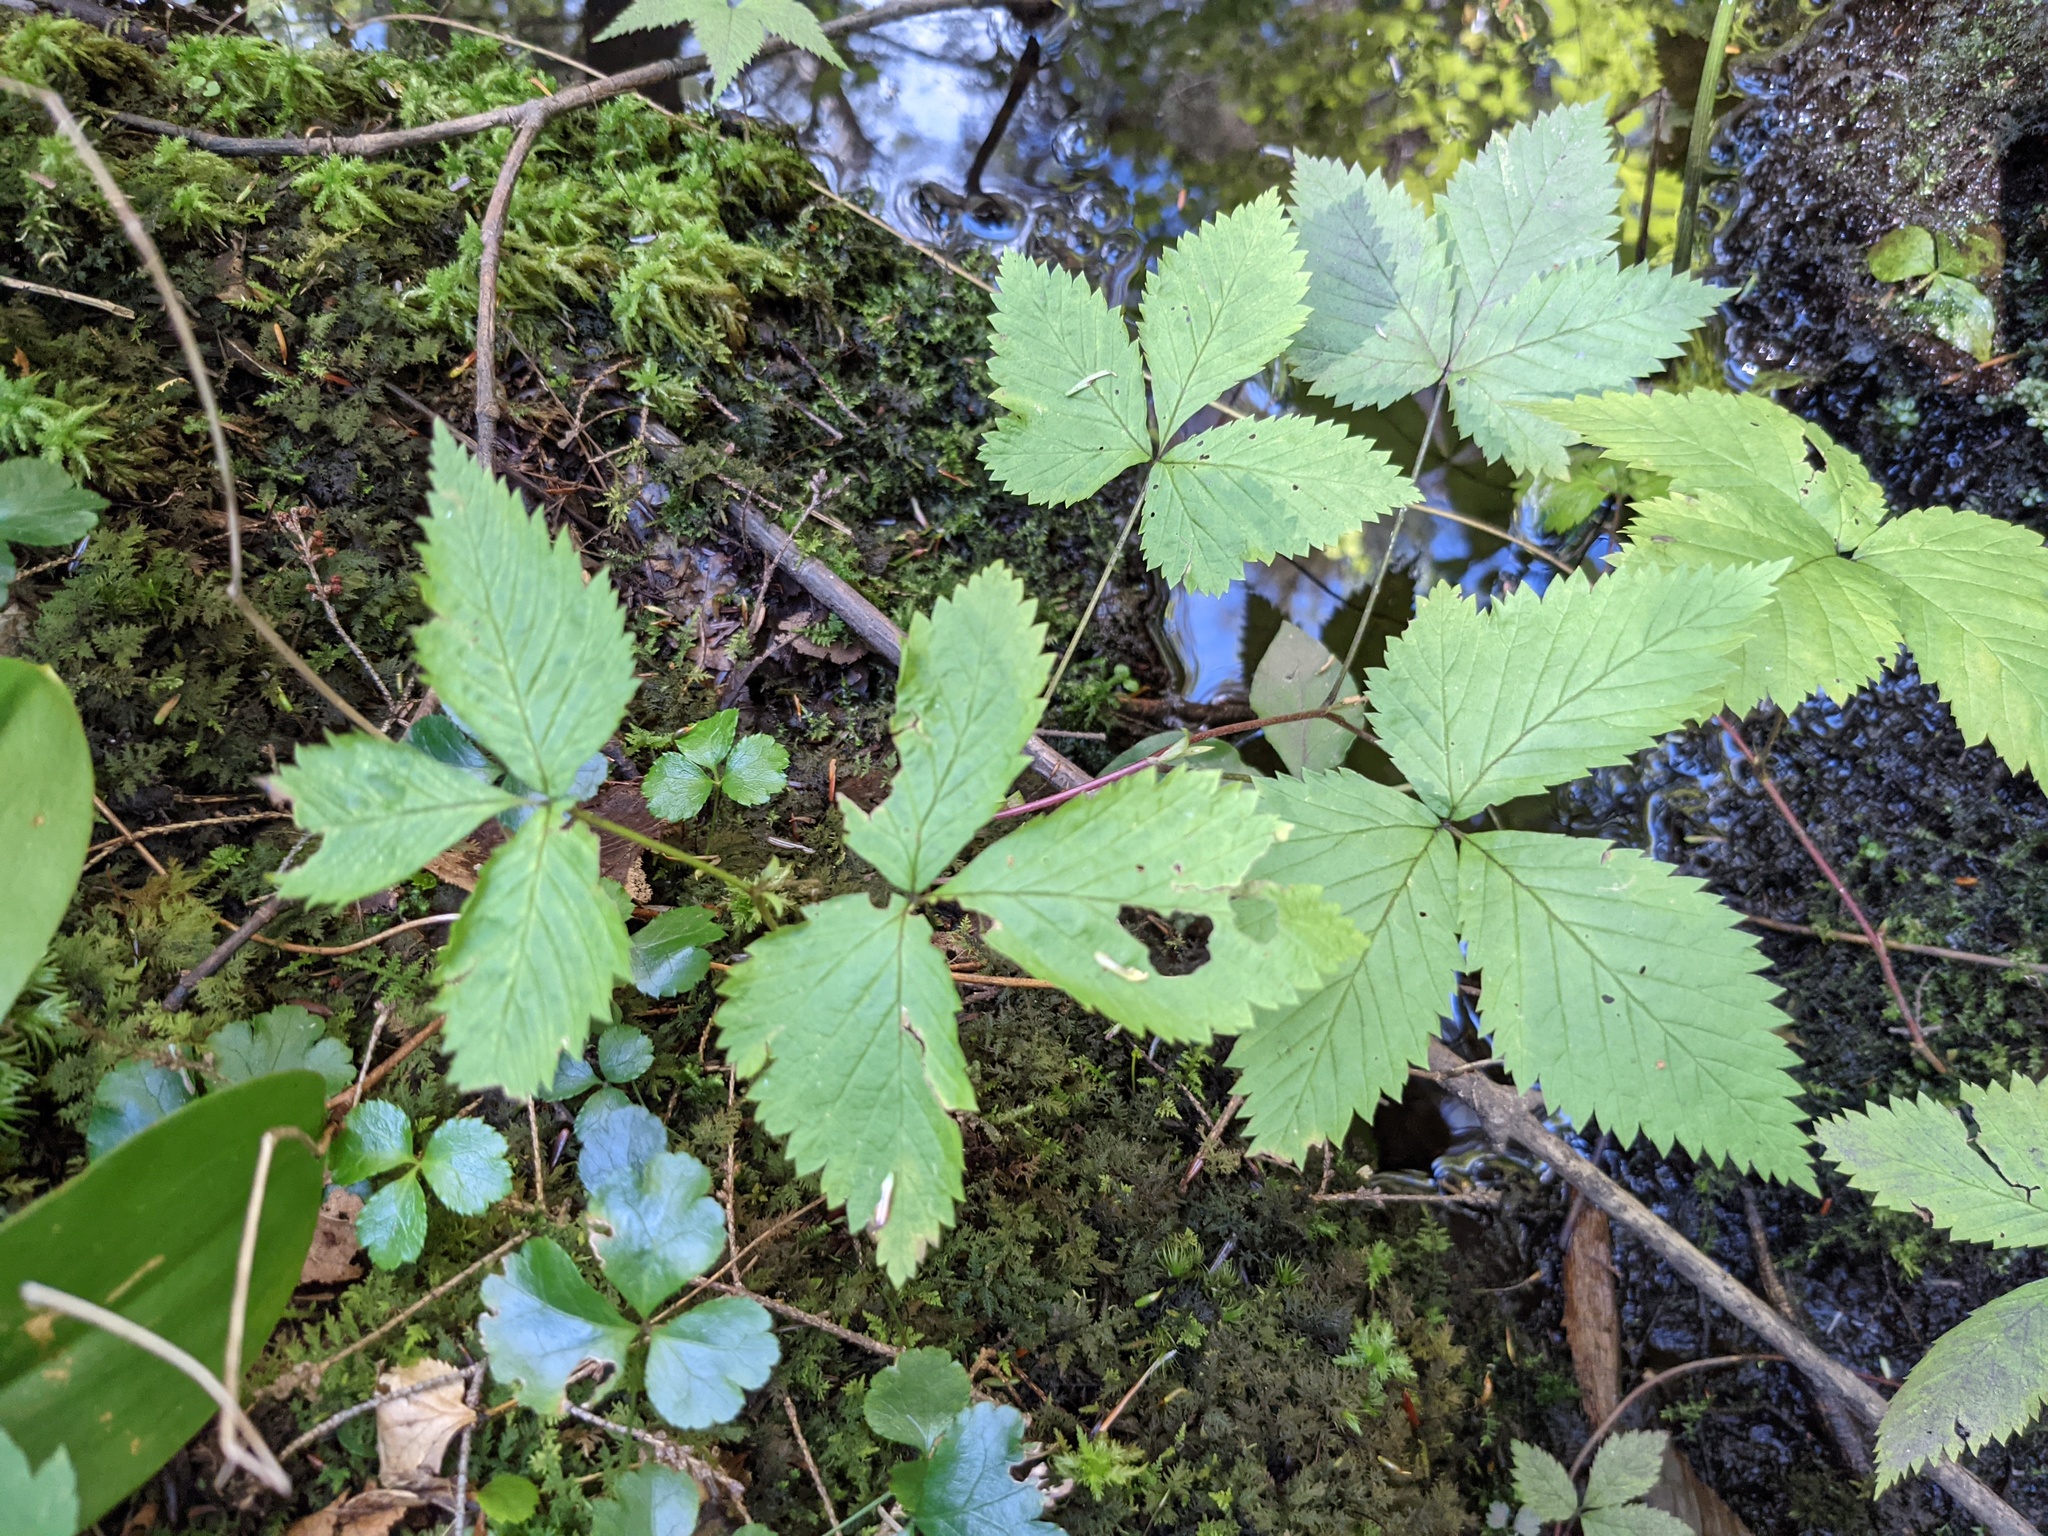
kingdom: Plantae
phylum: Tracheophyta
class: Magnoliopsida
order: Rosales
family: Rosaceae
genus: Rubus
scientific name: Rubus pubescens
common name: Dwarf raspberry
